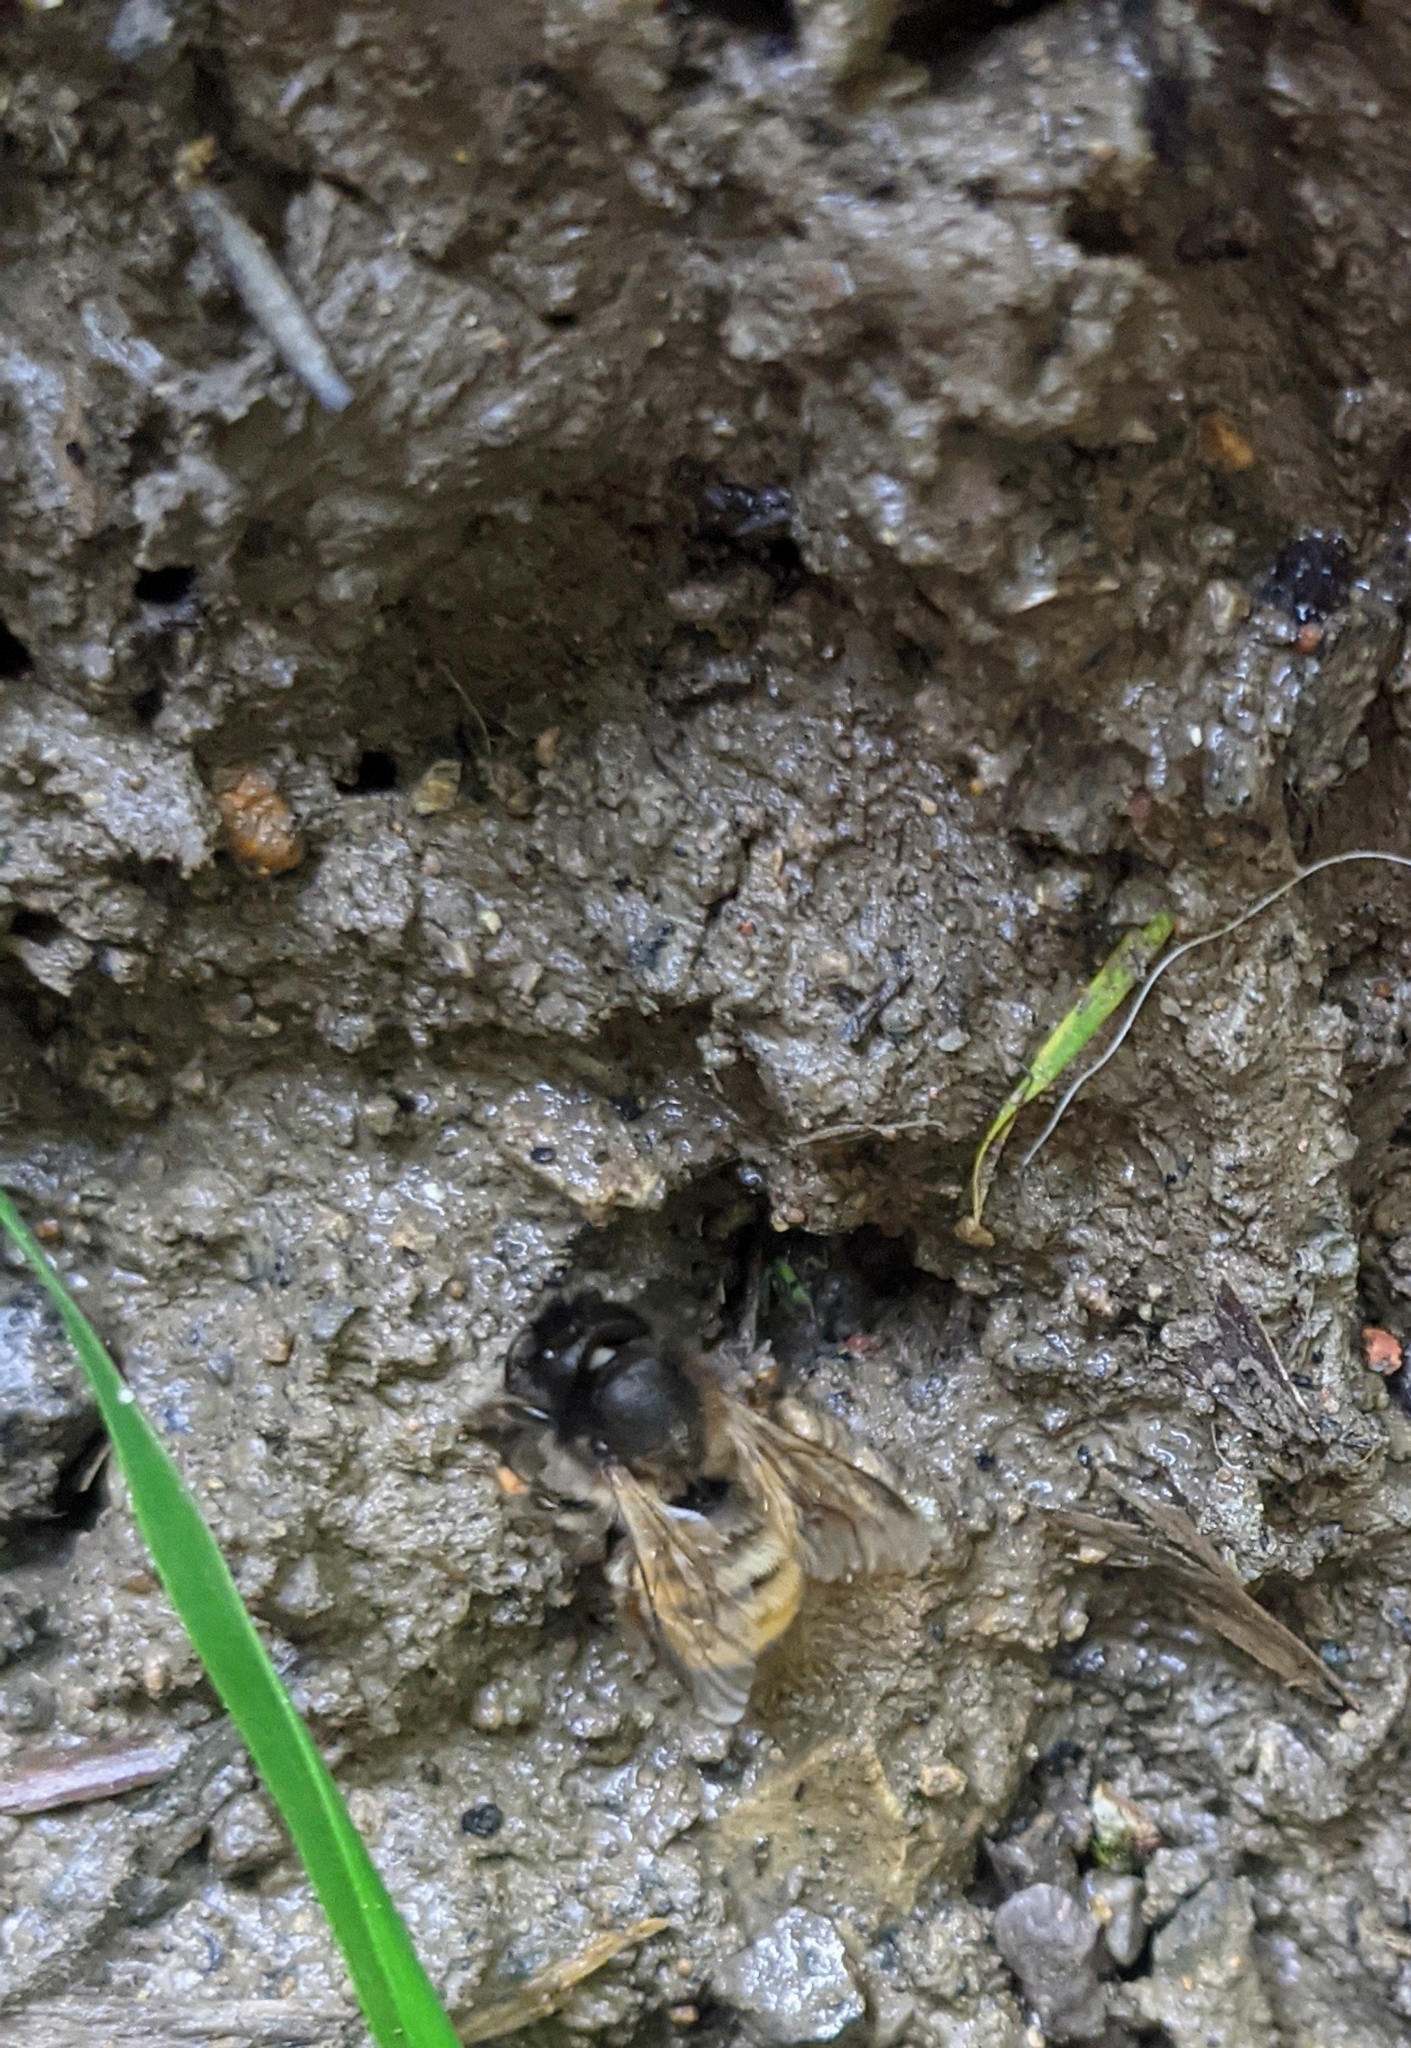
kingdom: Animalia
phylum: Arthropoda
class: Insecta
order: Hymenoptera
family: Megachilidae
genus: Osmia
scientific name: Osmia bicornis
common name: Red mason bee
